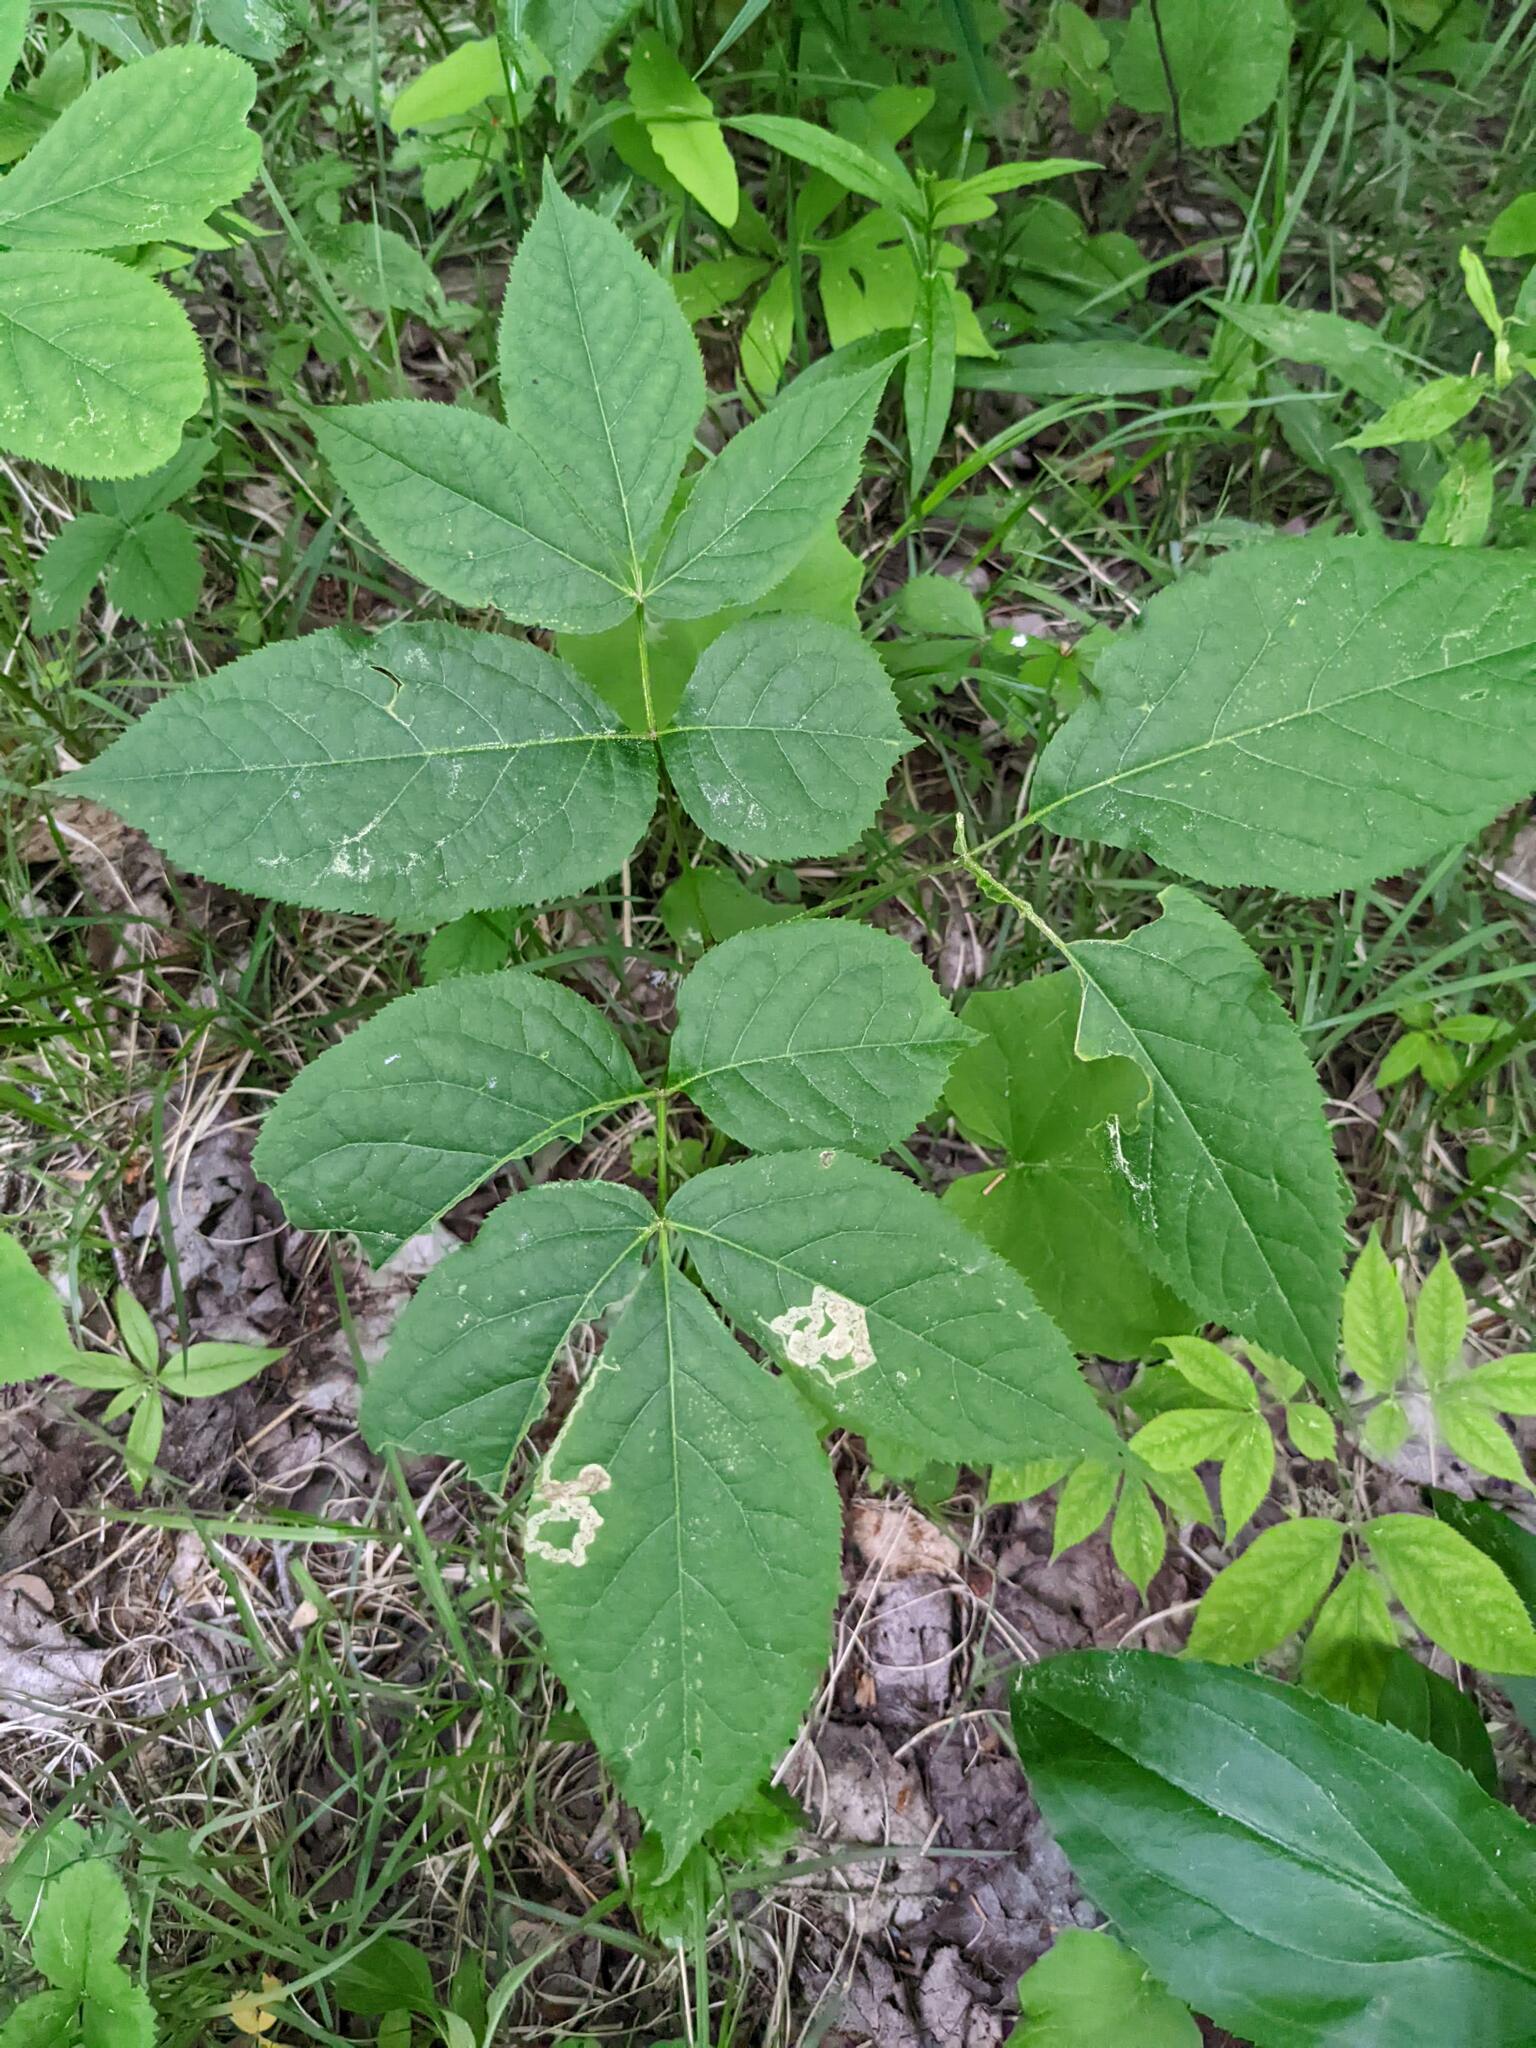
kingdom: Plantae
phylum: Tracheophyta
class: Magnoliopsida
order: Apiales
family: Araliaceae
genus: Aralia
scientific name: Aralia nudicaulis
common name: Wild sarsaparilla
